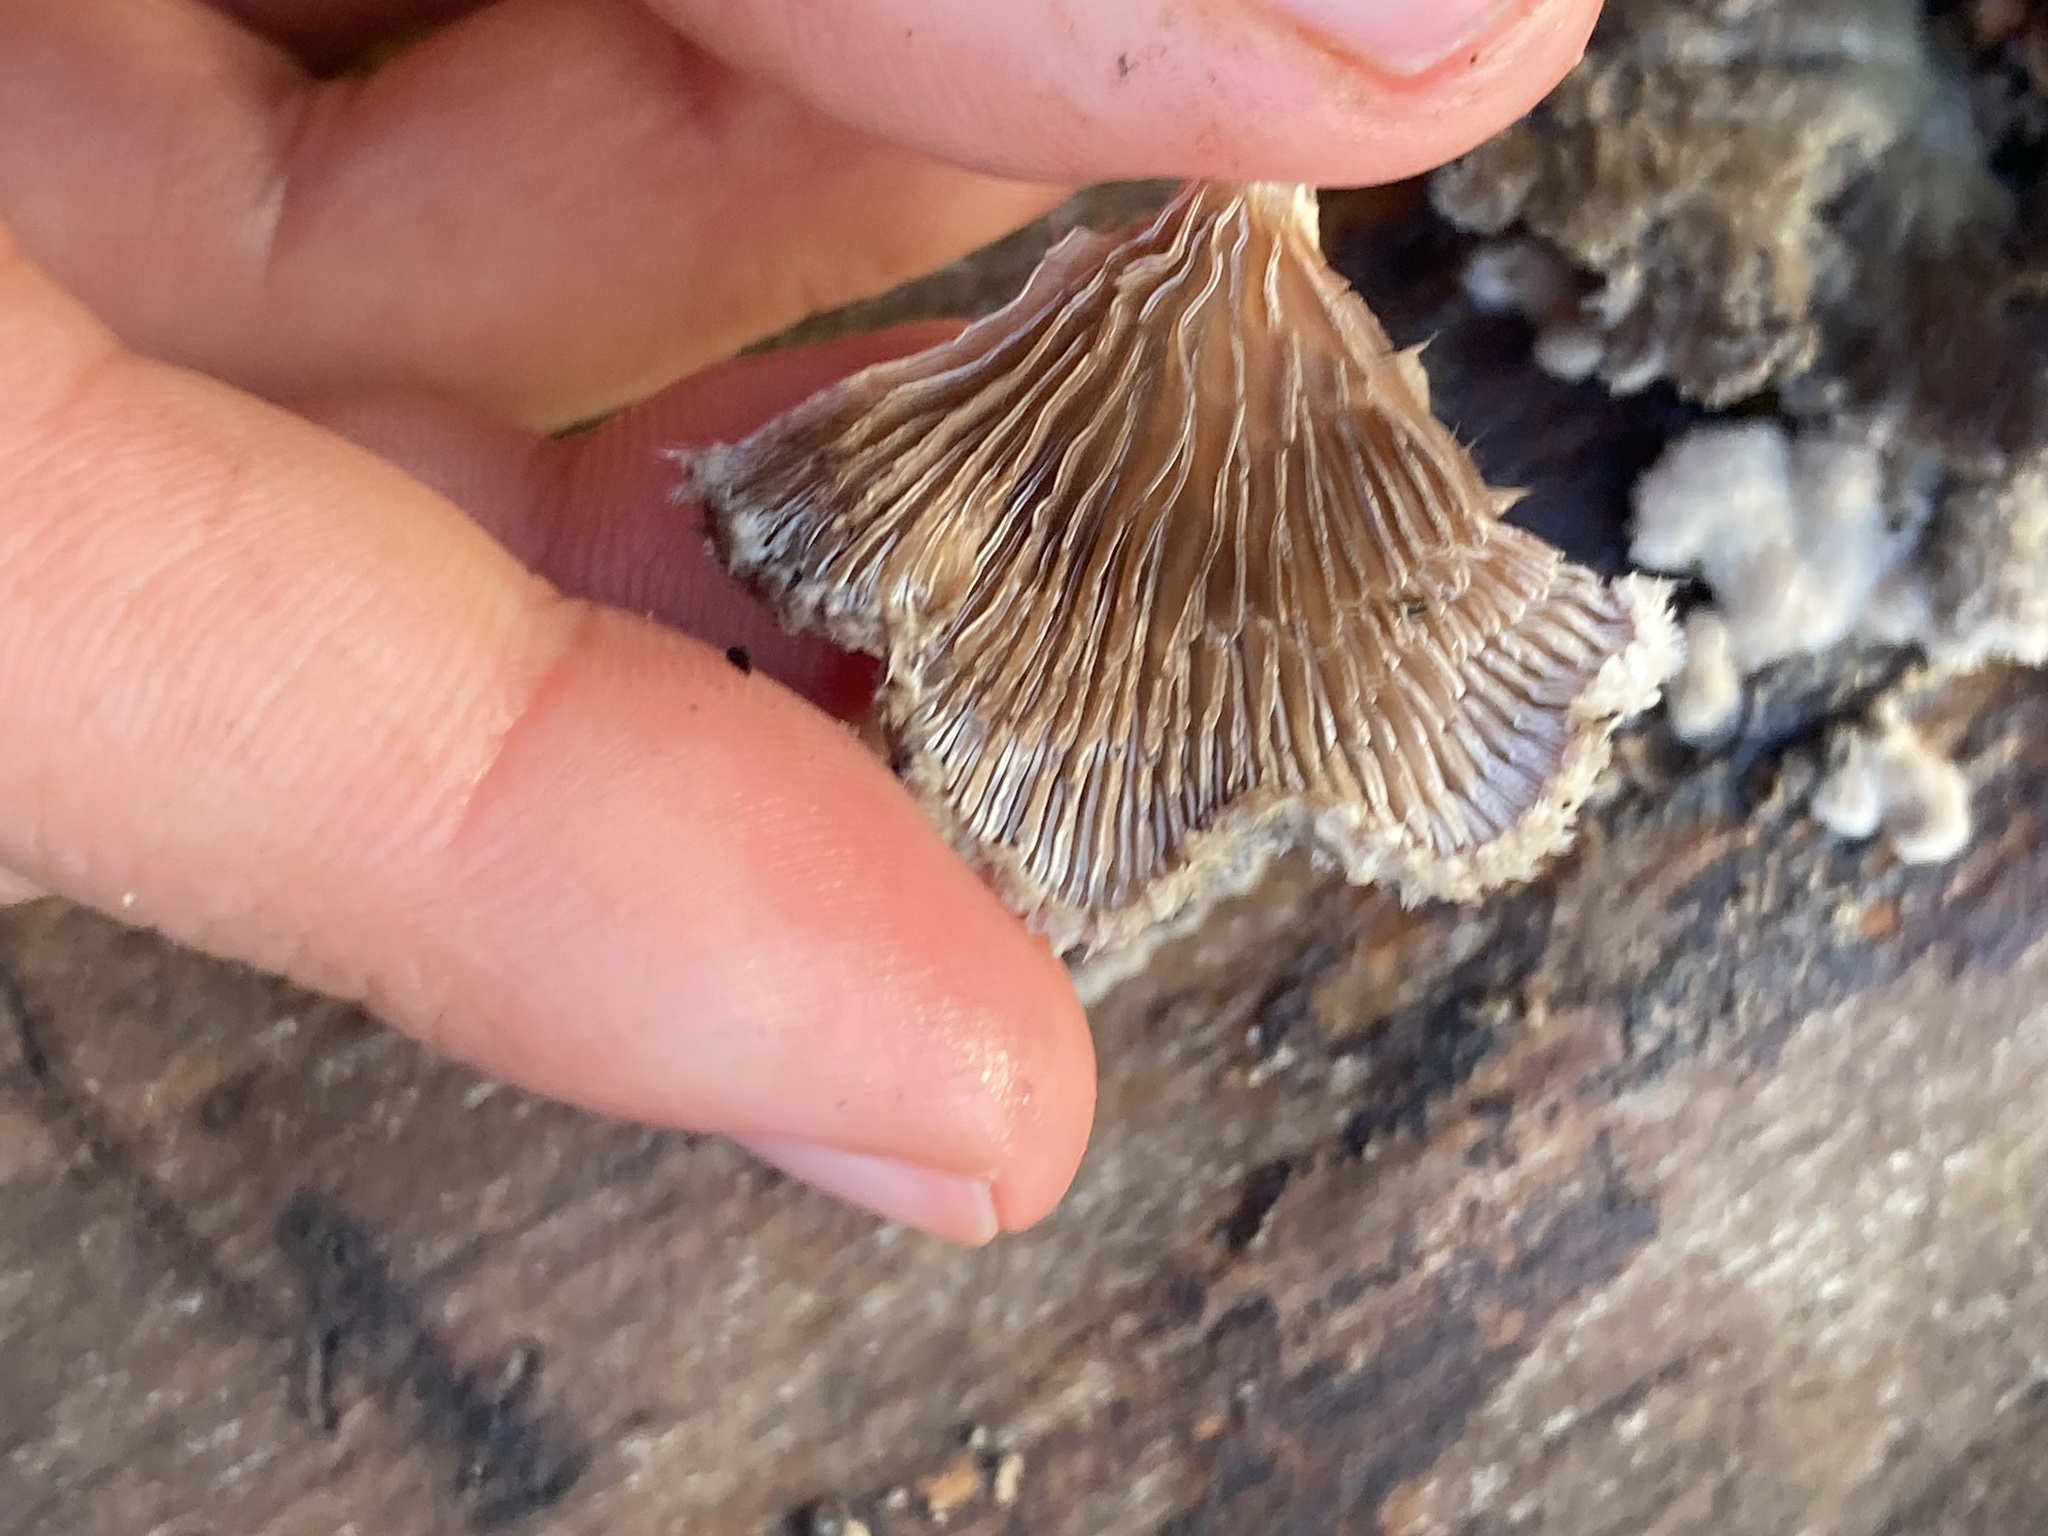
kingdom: Fungi
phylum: Basidiomycota
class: Agaricomycetes
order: Agaricales
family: Schizophyllaceae
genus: Schizophyllum
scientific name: Schizophyllum commune
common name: Common porecrust
